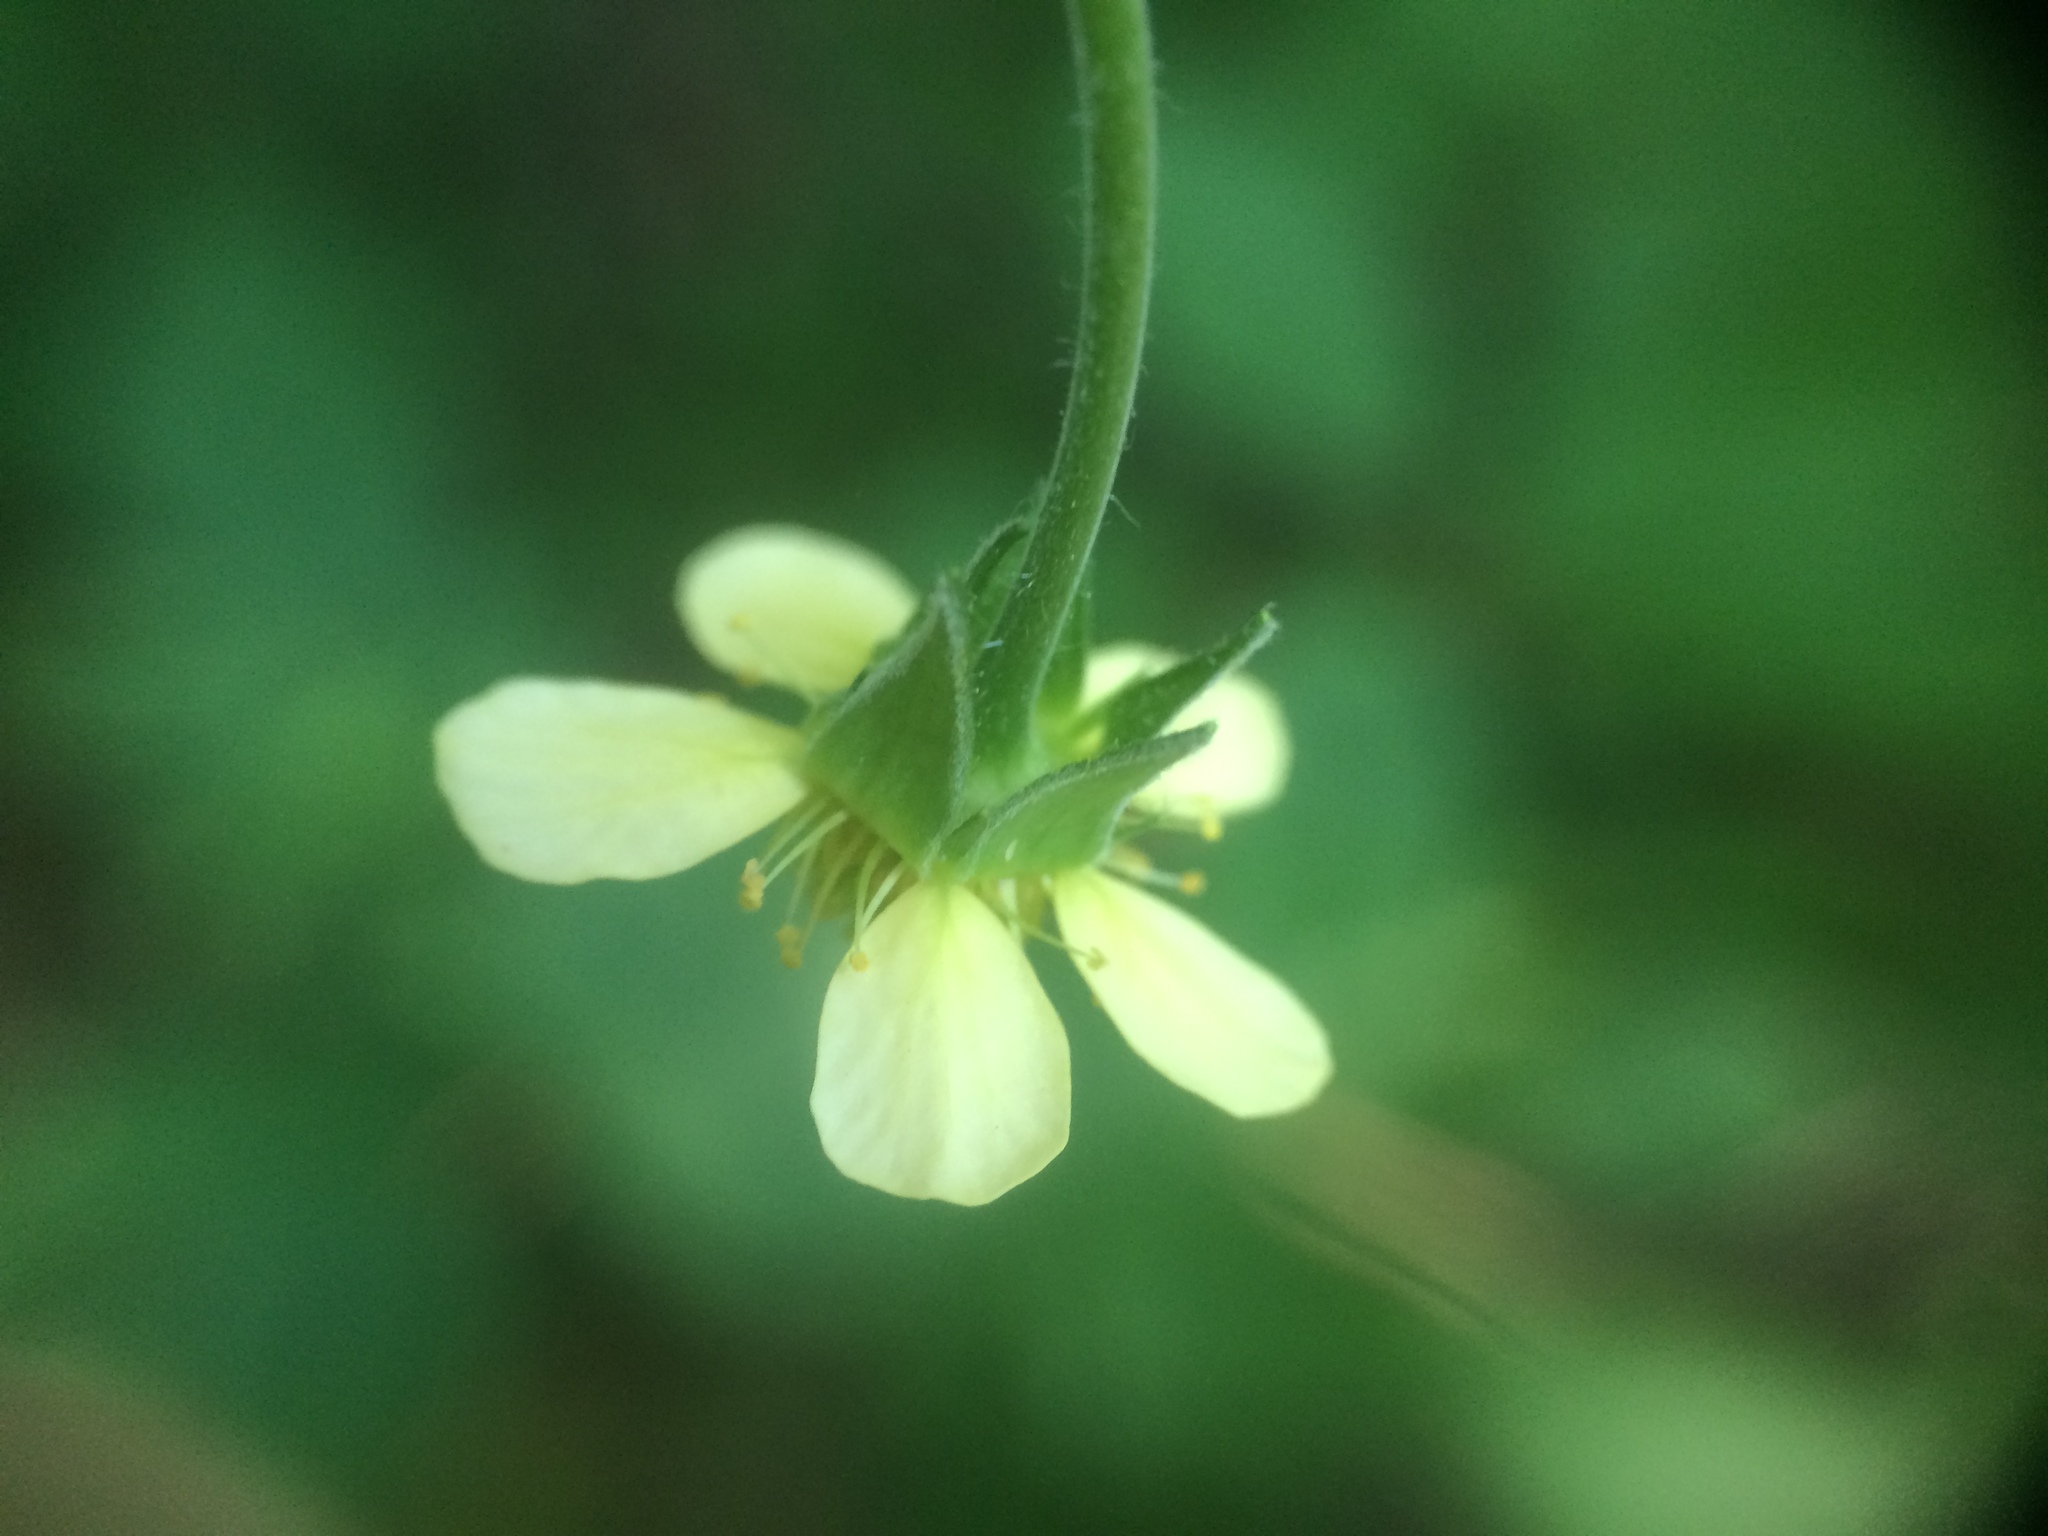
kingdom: Plantae
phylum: Tracheophyta
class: Magnoliopsida
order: Rosales
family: Rosaceae
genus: Geum
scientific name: Geum catlingii
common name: Catling's avens
